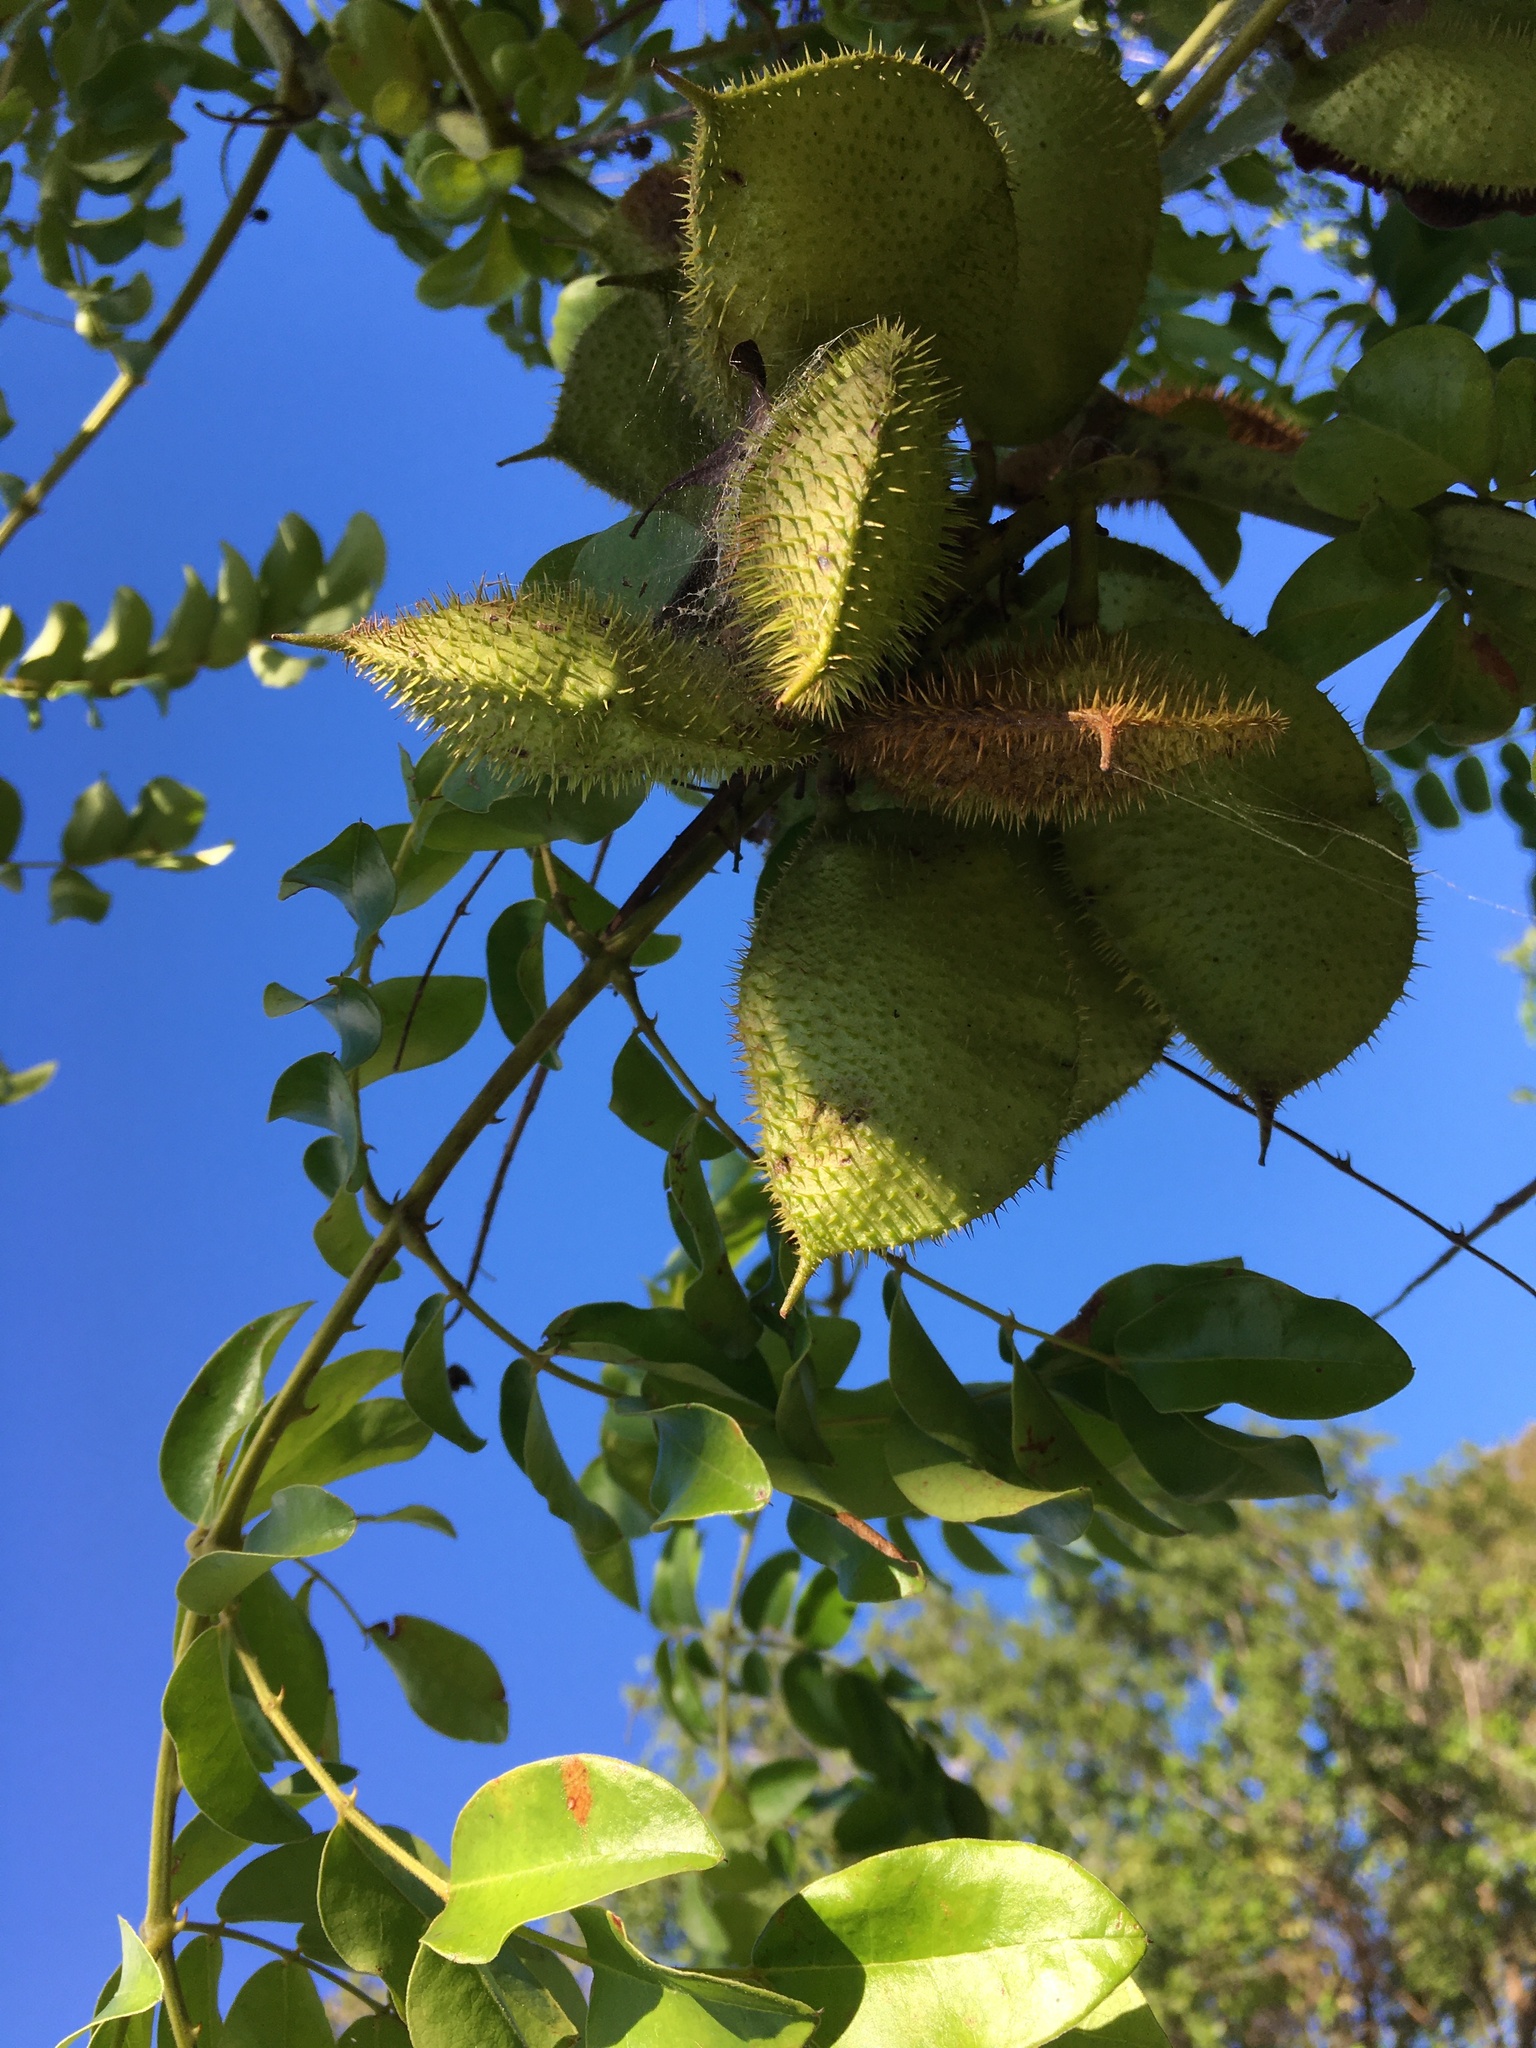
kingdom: Plantae
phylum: Tracheophyta
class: Magnoliopsida
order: Fabales
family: Fabaceae
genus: Guilandina
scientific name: Guilandina bonduc
